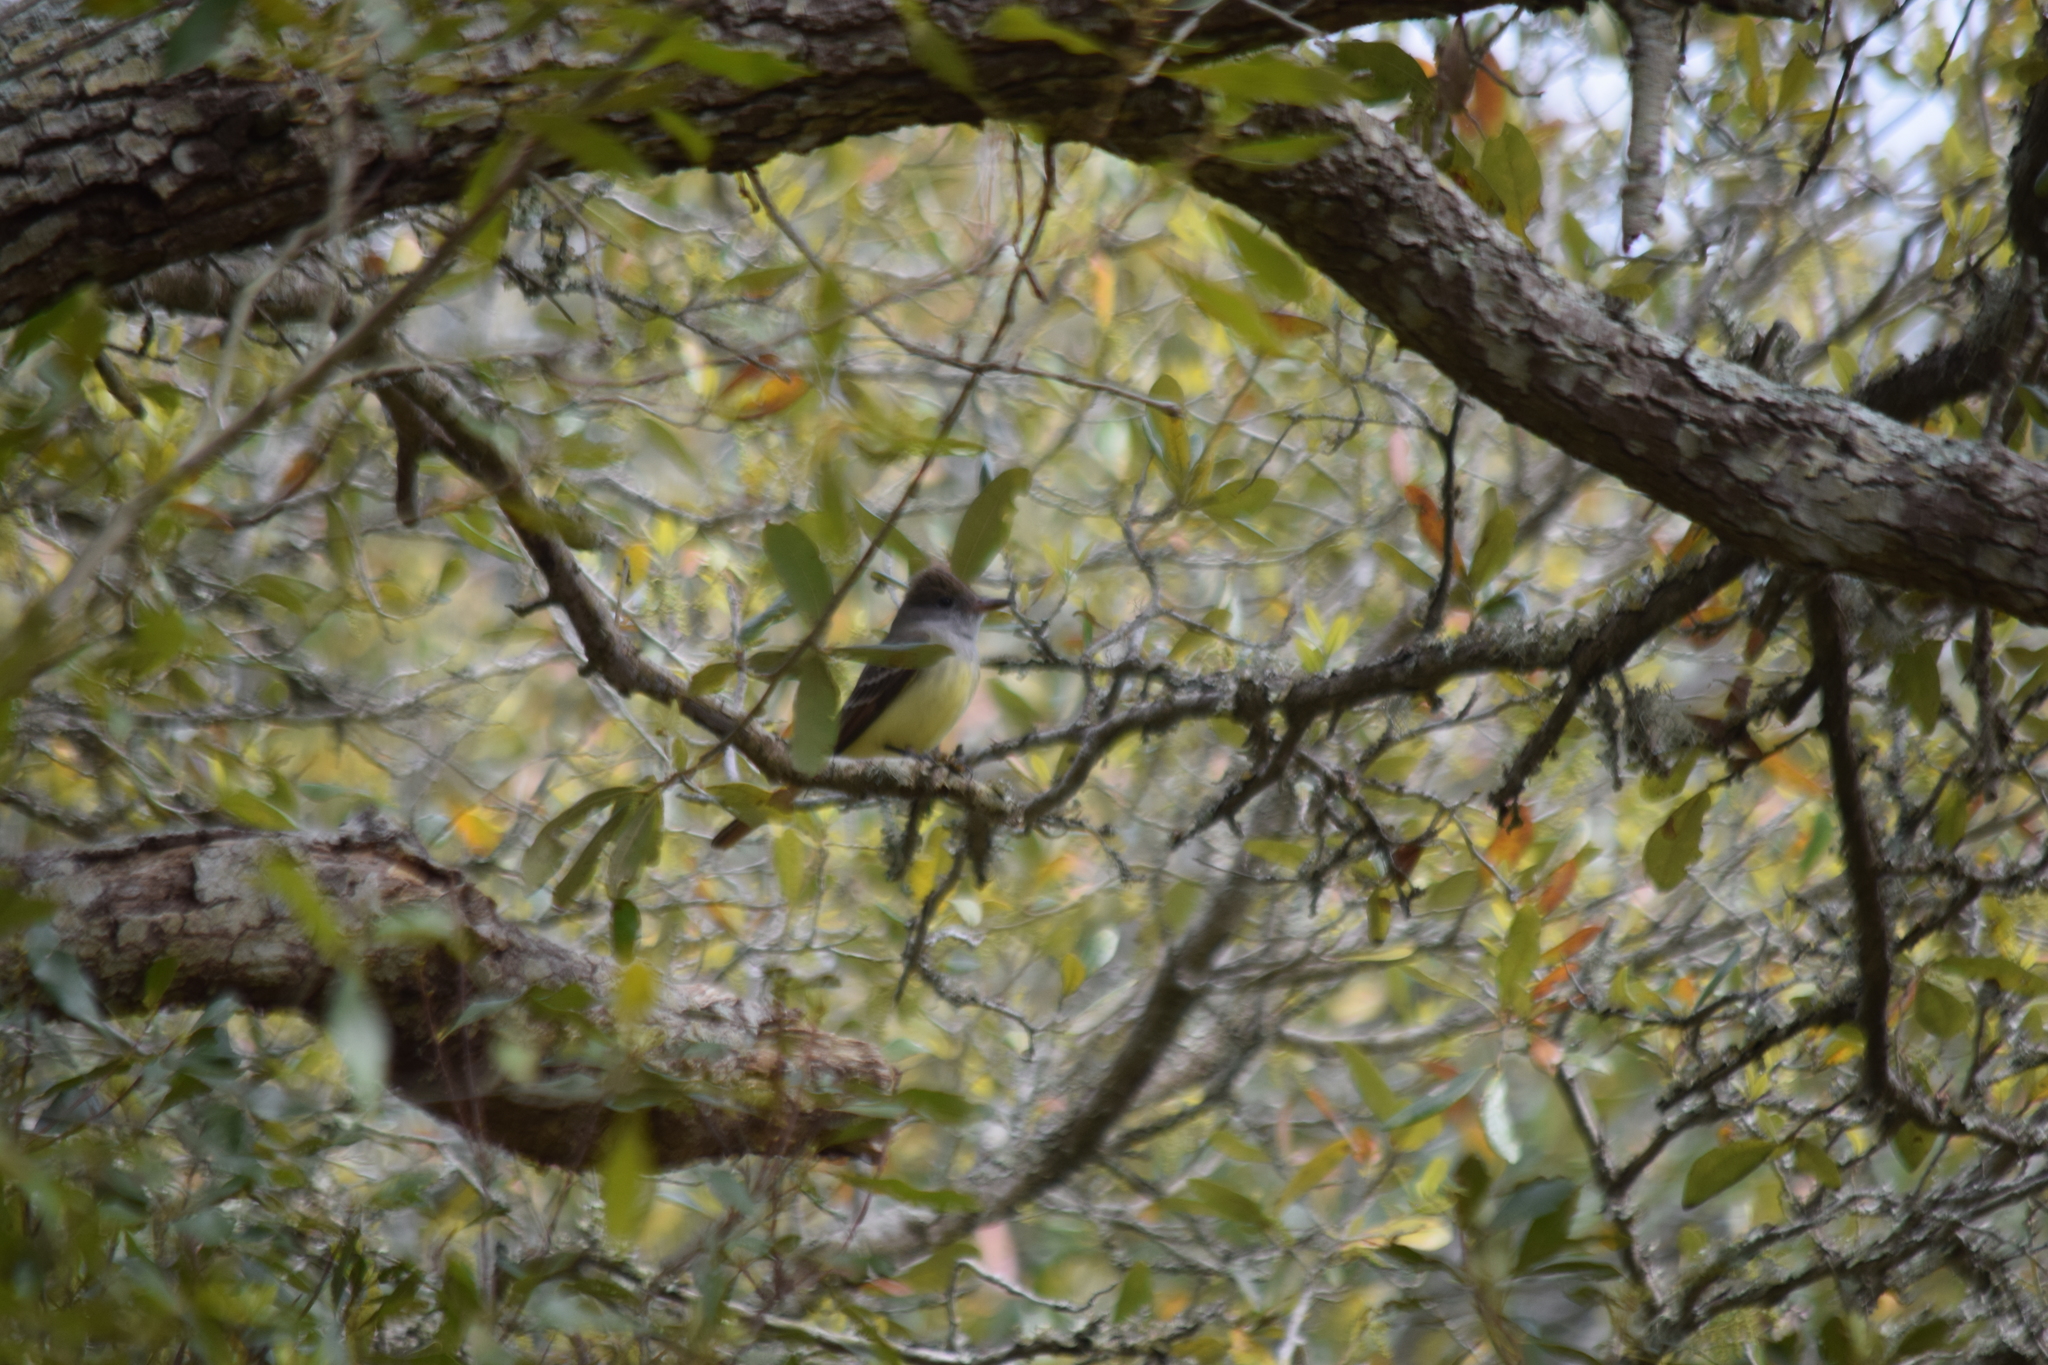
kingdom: Animalia
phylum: Chordata
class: Aves
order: Passeriformes
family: Tyrannidae
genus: Myiarchus
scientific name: Myiarchus crinitus
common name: Great crested flycatcher
